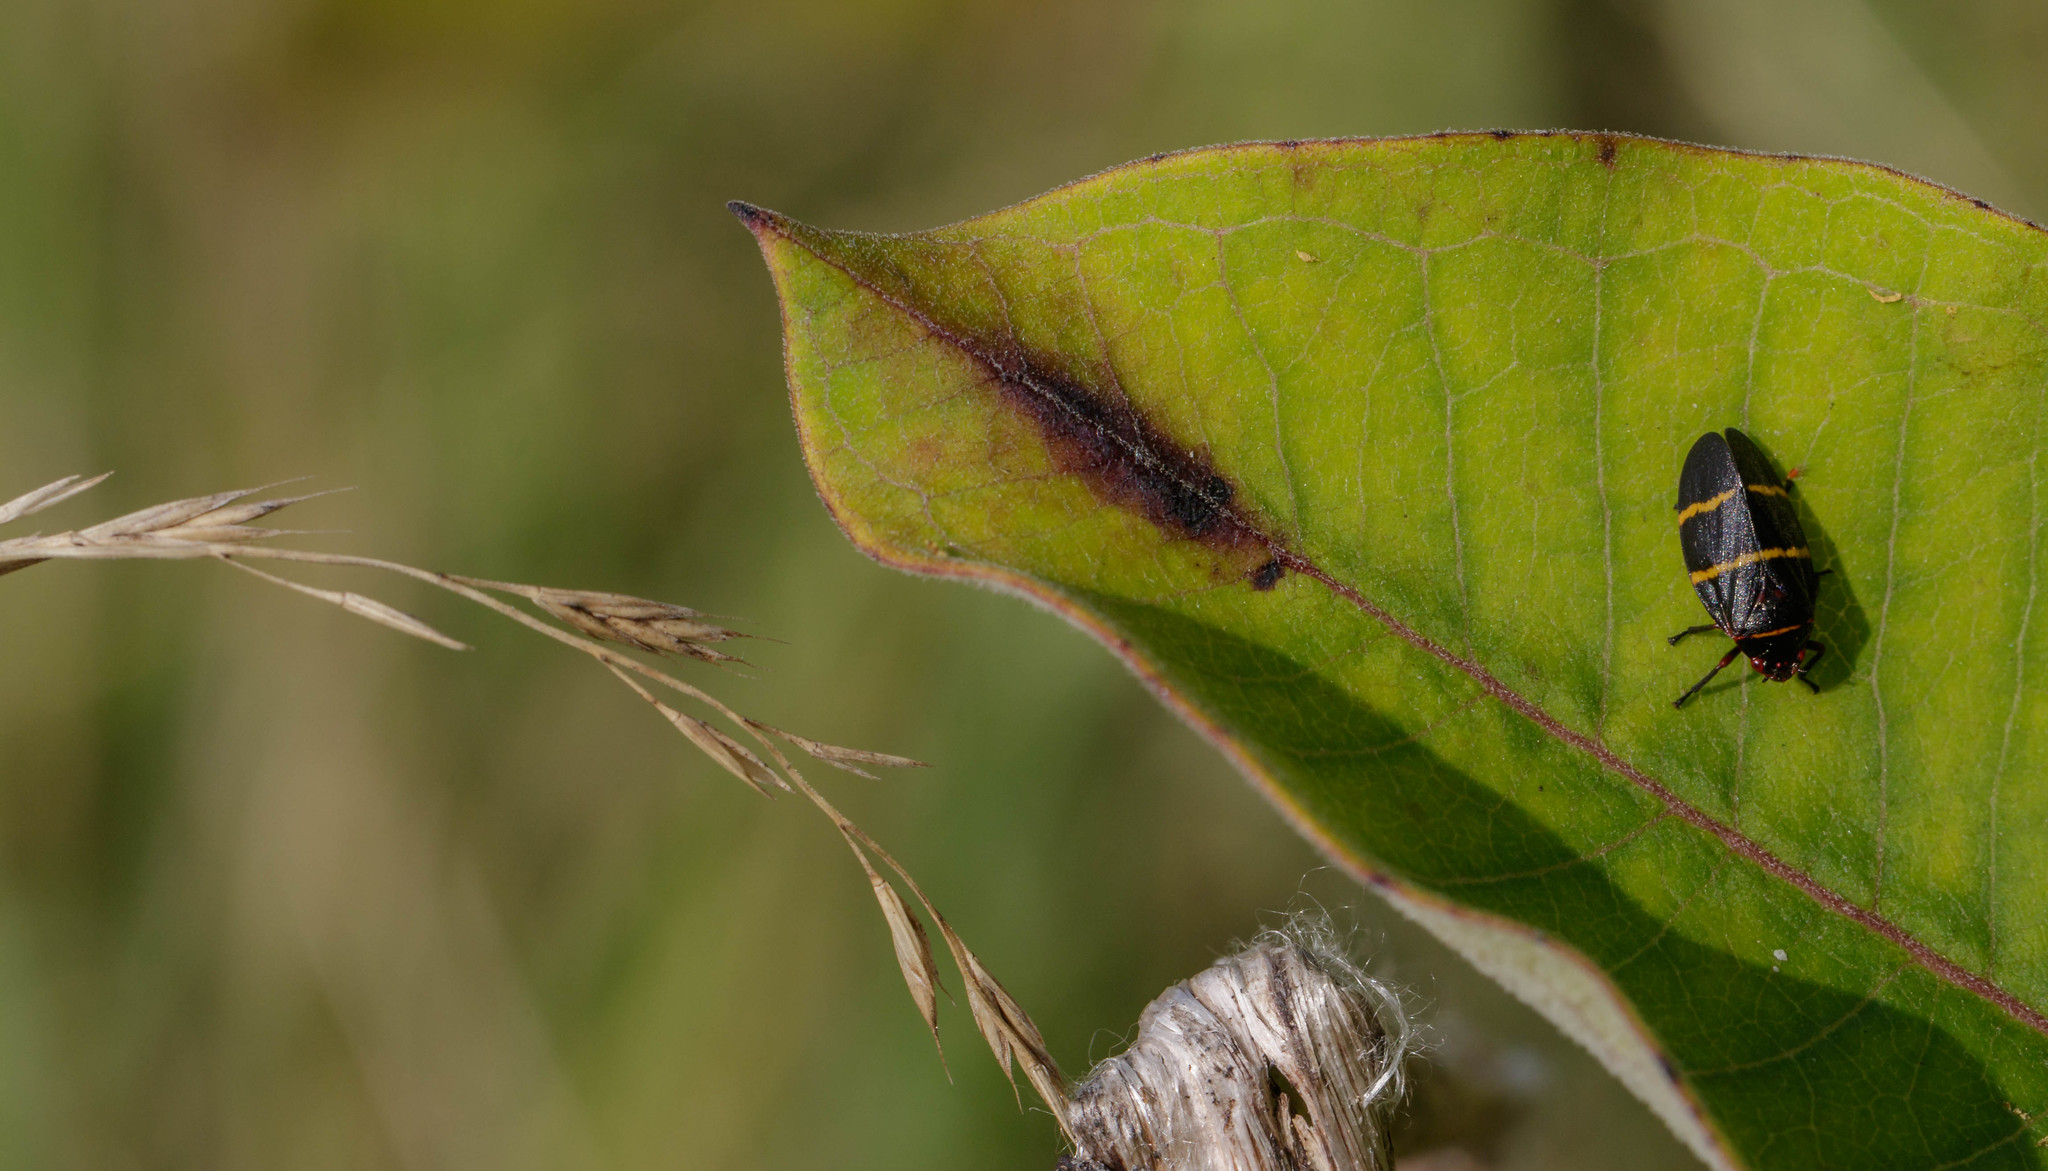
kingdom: Animalia
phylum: Arthropoda
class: Insecta
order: Hemiptera
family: Cercopidae
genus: Prosapia
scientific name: Prosapia bicincta
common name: Twolined spittlebug
